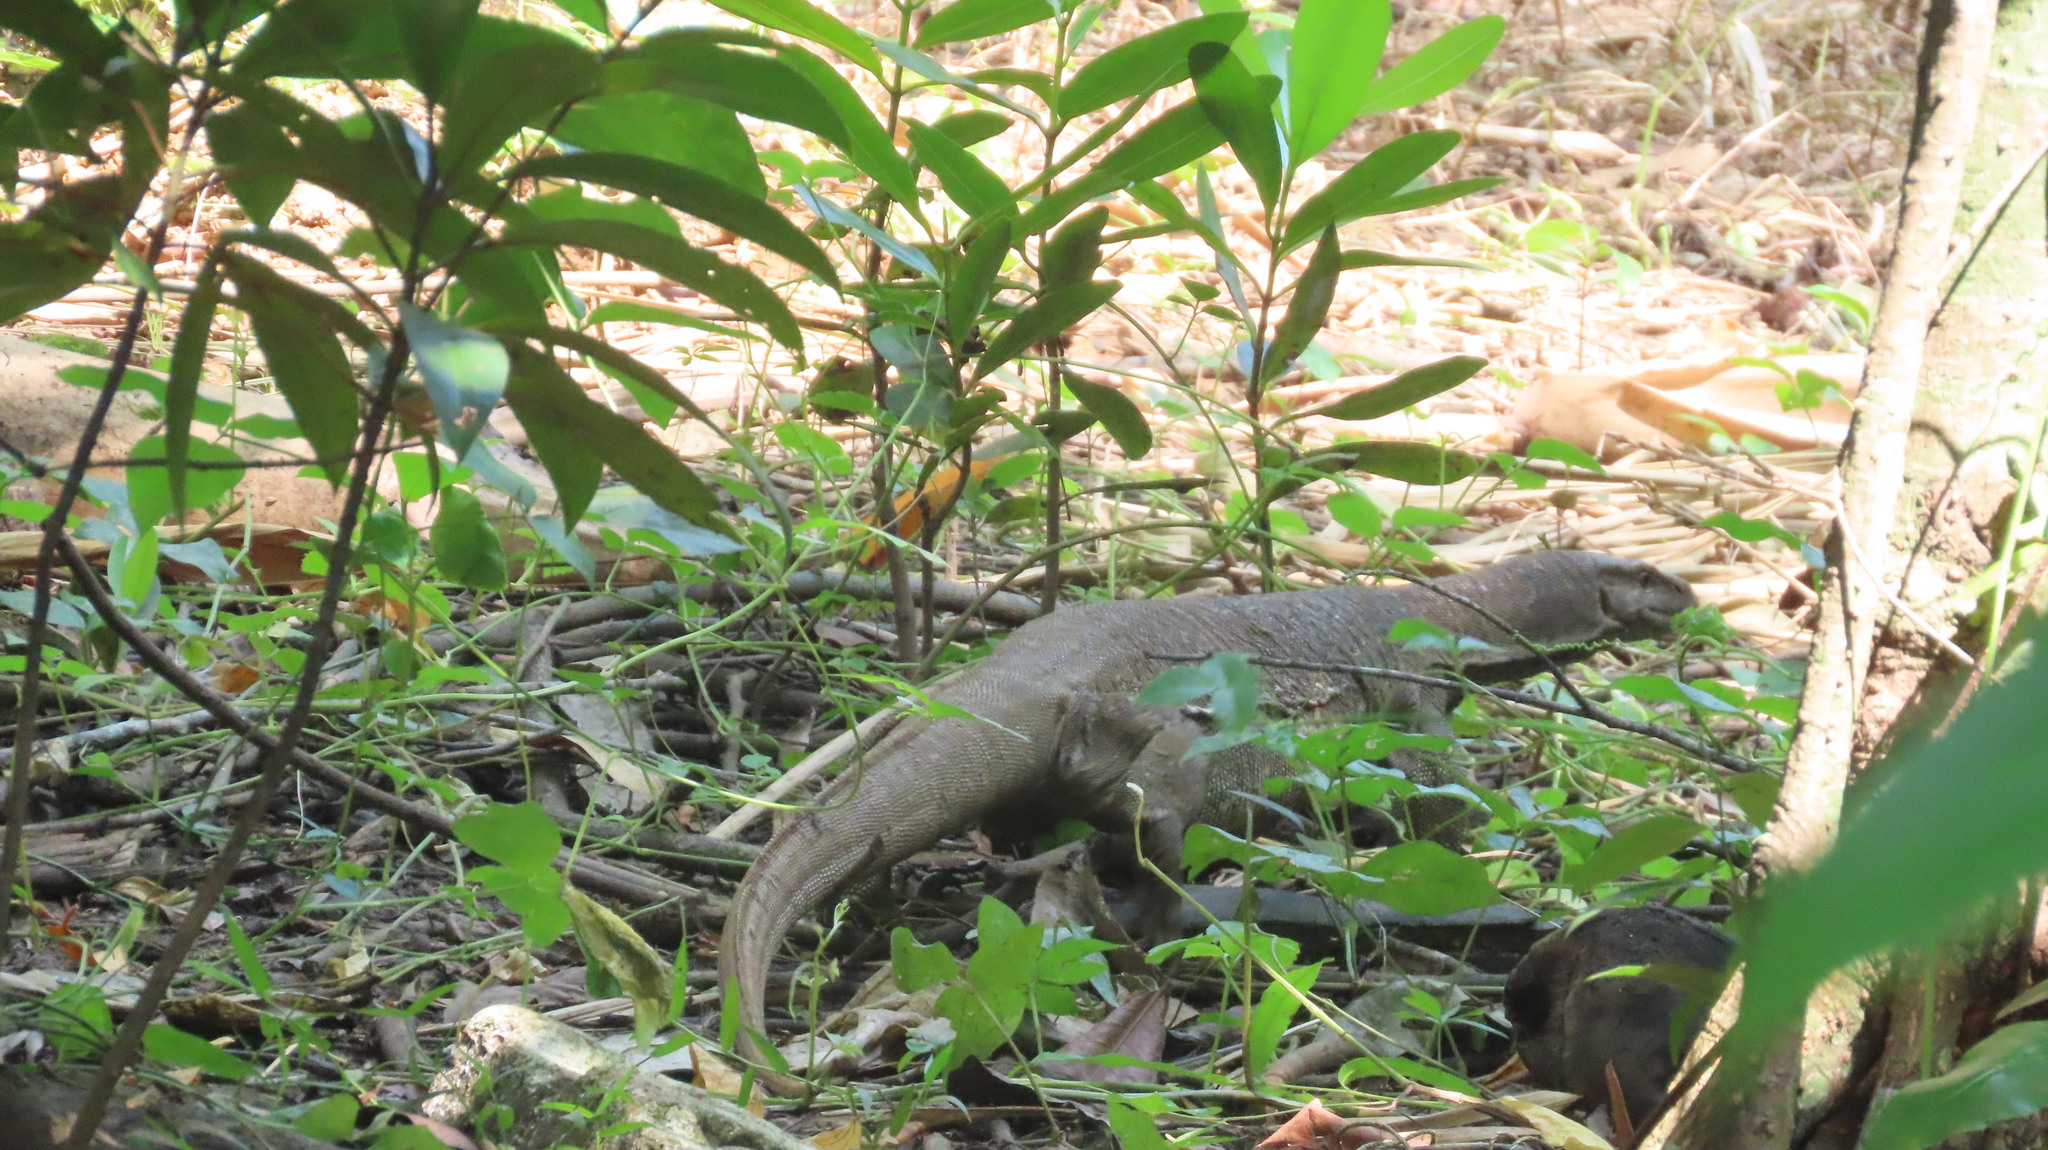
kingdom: Animalia
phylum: Chordata
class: Squamata
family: Varanidae
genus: Varanus
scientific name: Varanus bengalensis
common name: Bengal monitor
